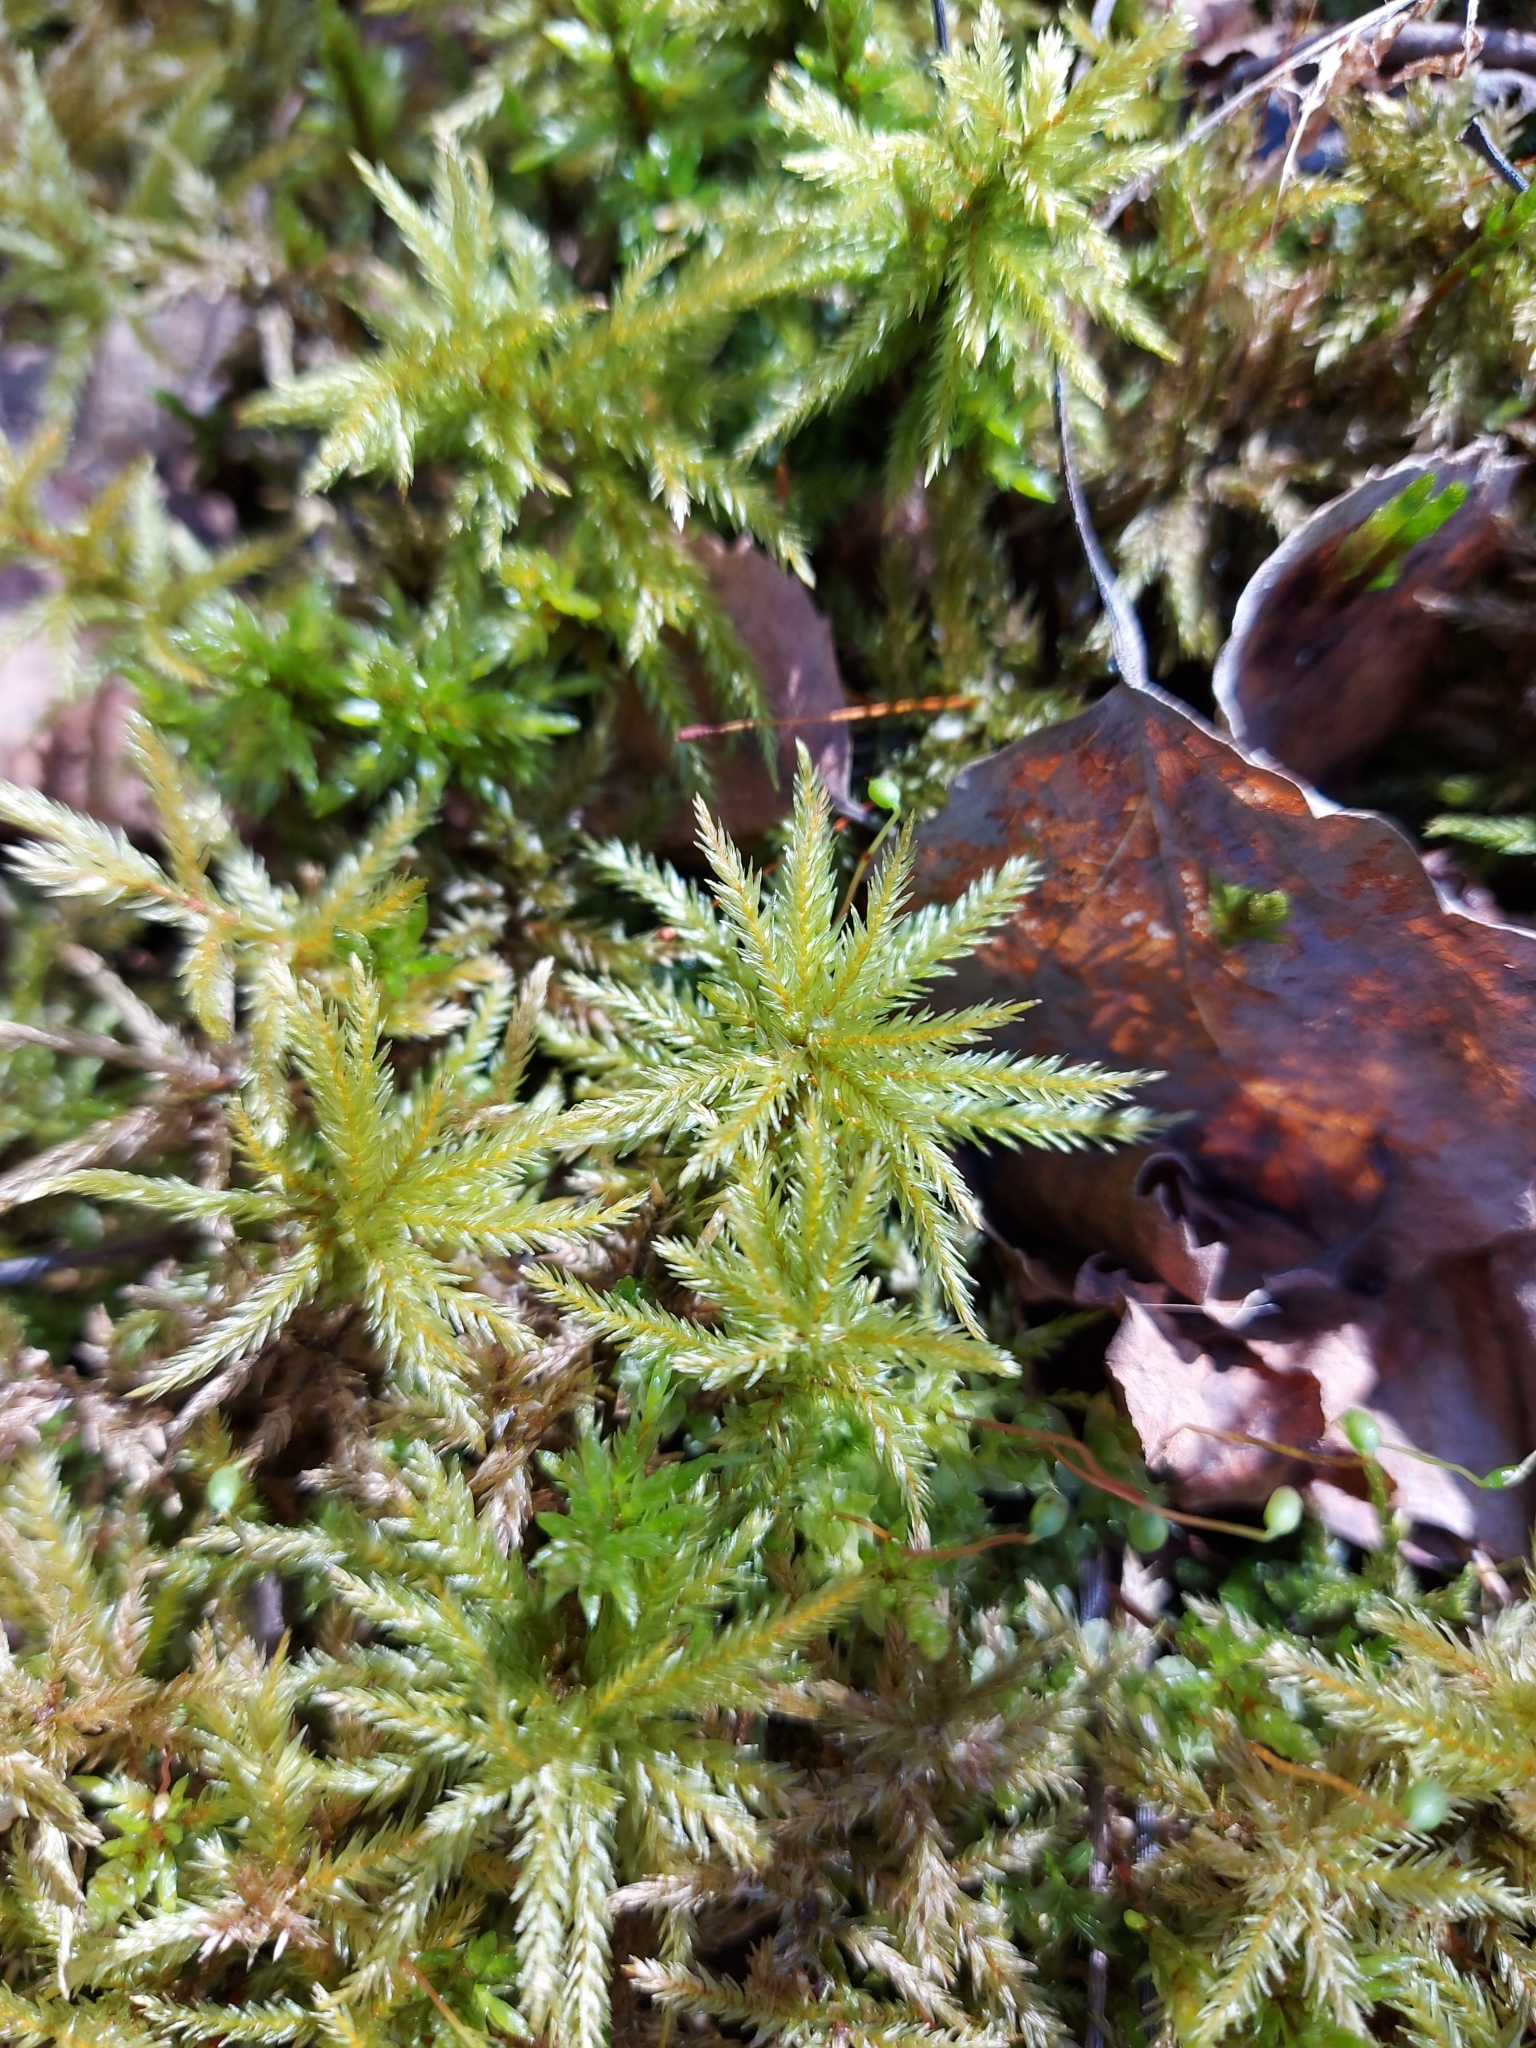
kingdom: Plantae
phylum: Bryophyta
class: Bryopsida
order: Hypnales
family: Climaciaceae
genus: Climacium
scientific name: Climacium dendroides
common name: Northern tree moss
